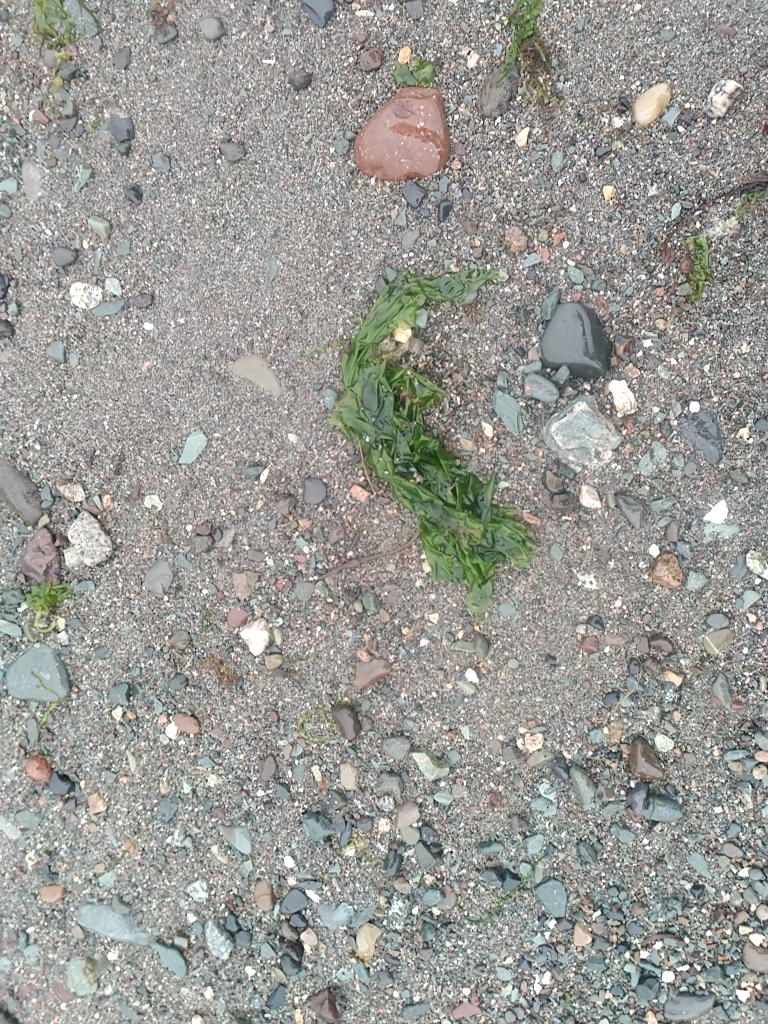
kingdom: Plantae
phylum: Chlorophyta
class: Ulvophyceae
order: Ulvales
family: Ulvaceae
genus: Ulva
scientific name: Ulva lactuca
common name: Sea lettuce
